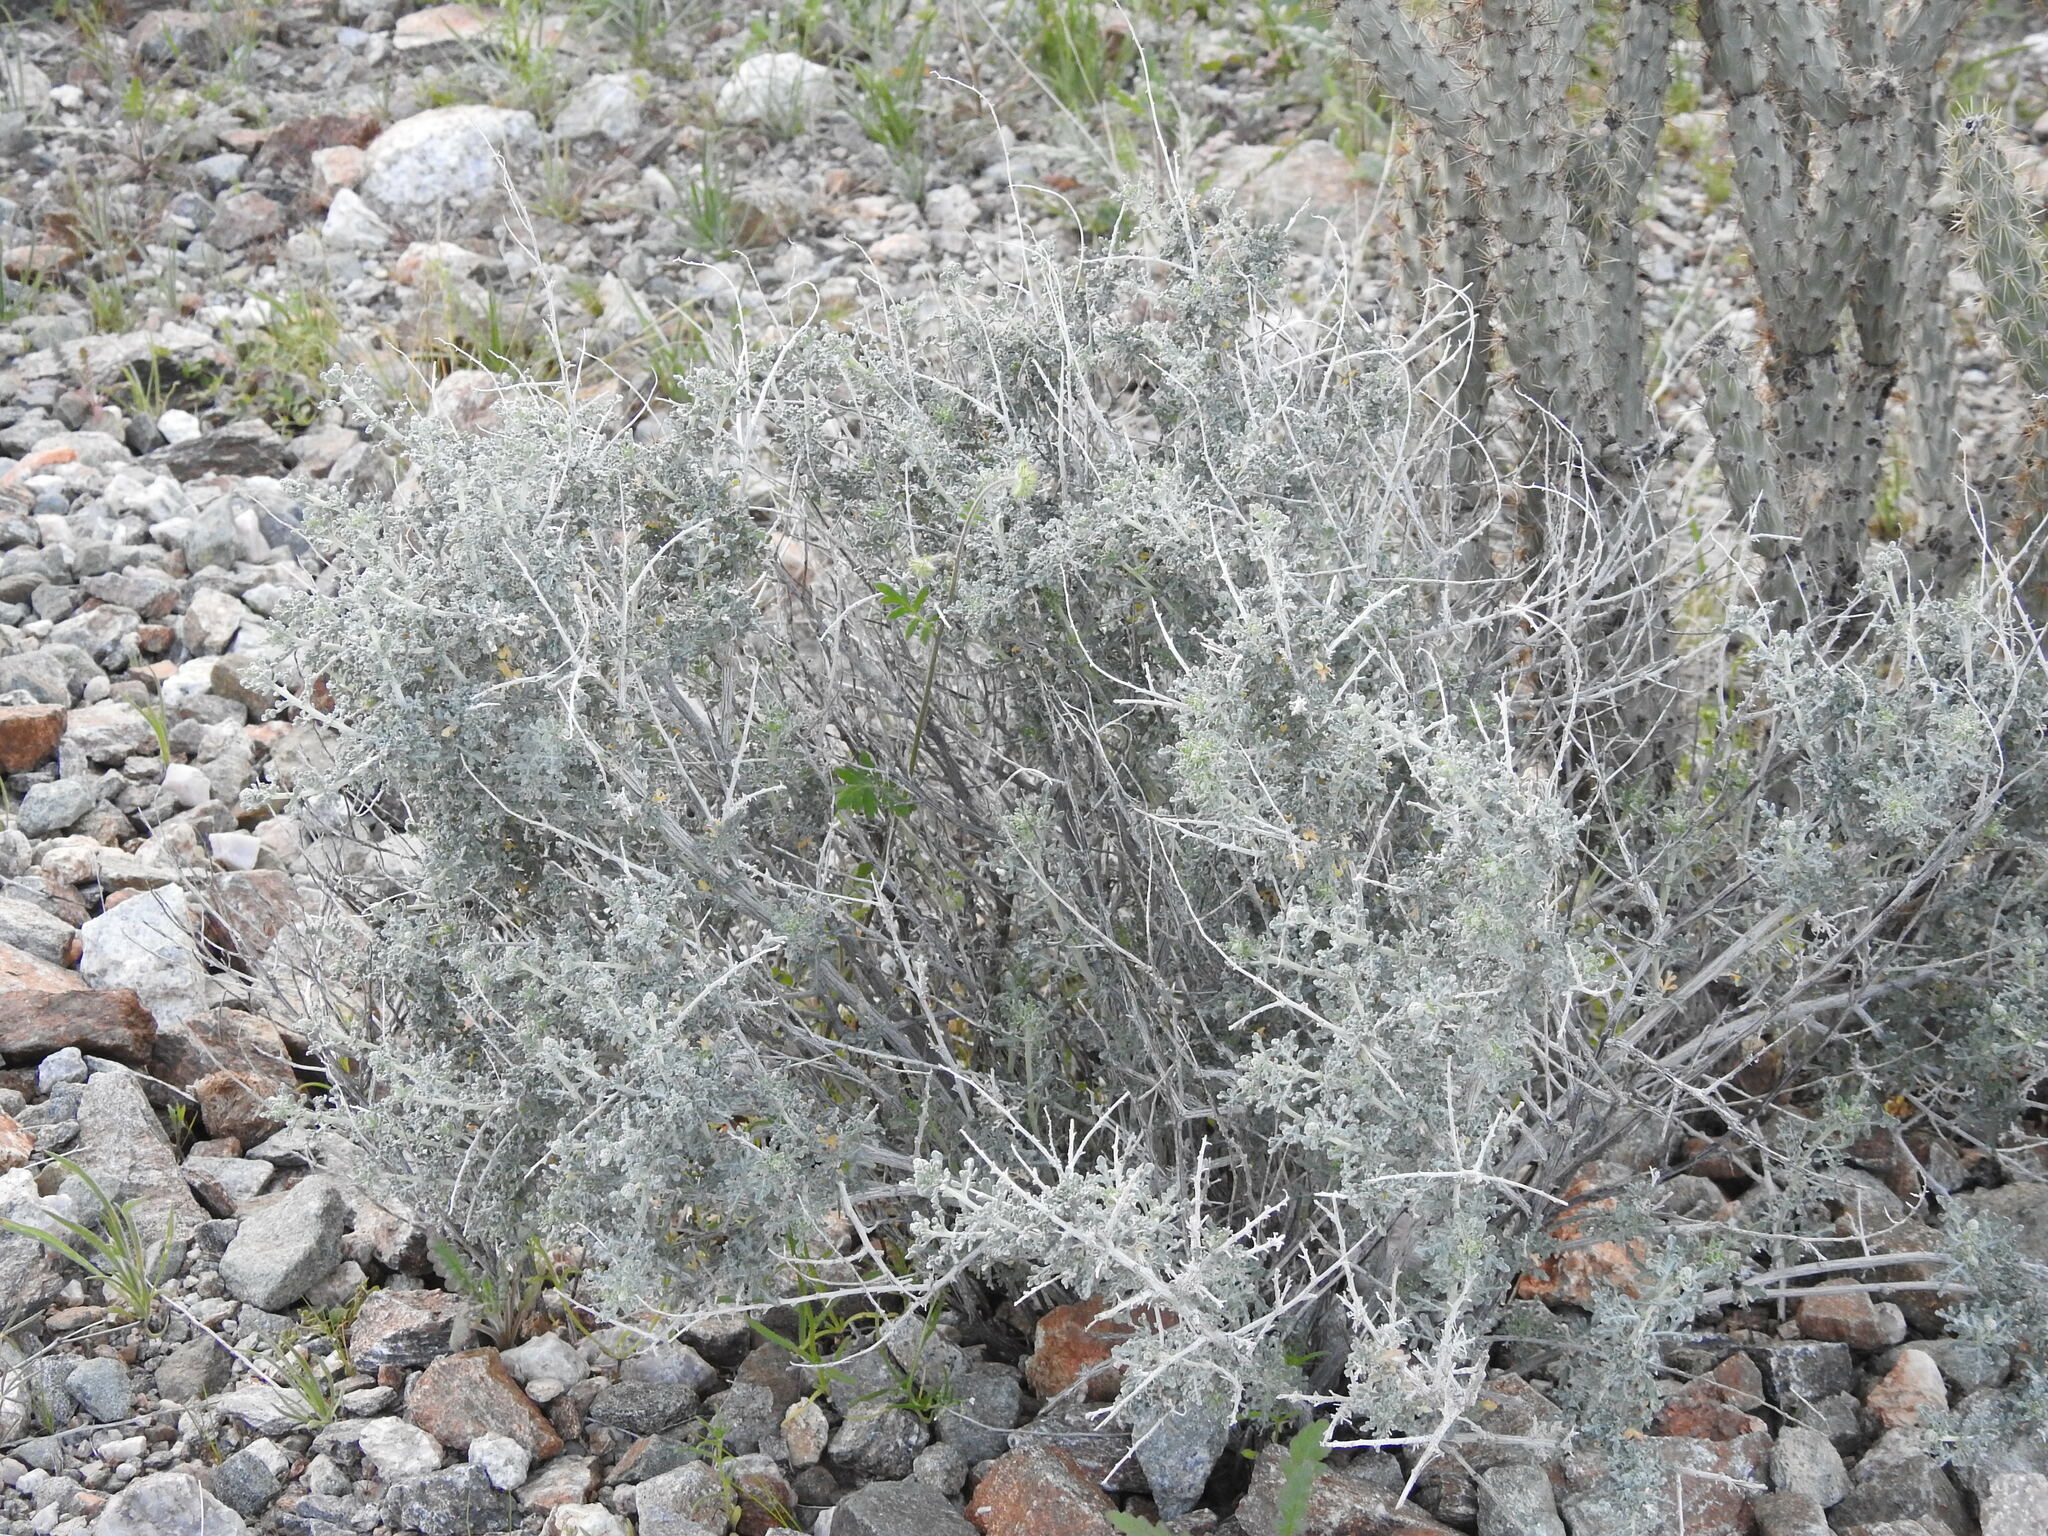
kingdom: Plantae
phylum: Tracheophyta
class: Magnoliopsida
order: Asterales
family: Asteraceae
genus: Ambrosia
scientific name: Ambrosia dumosa
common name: Bur-sage
